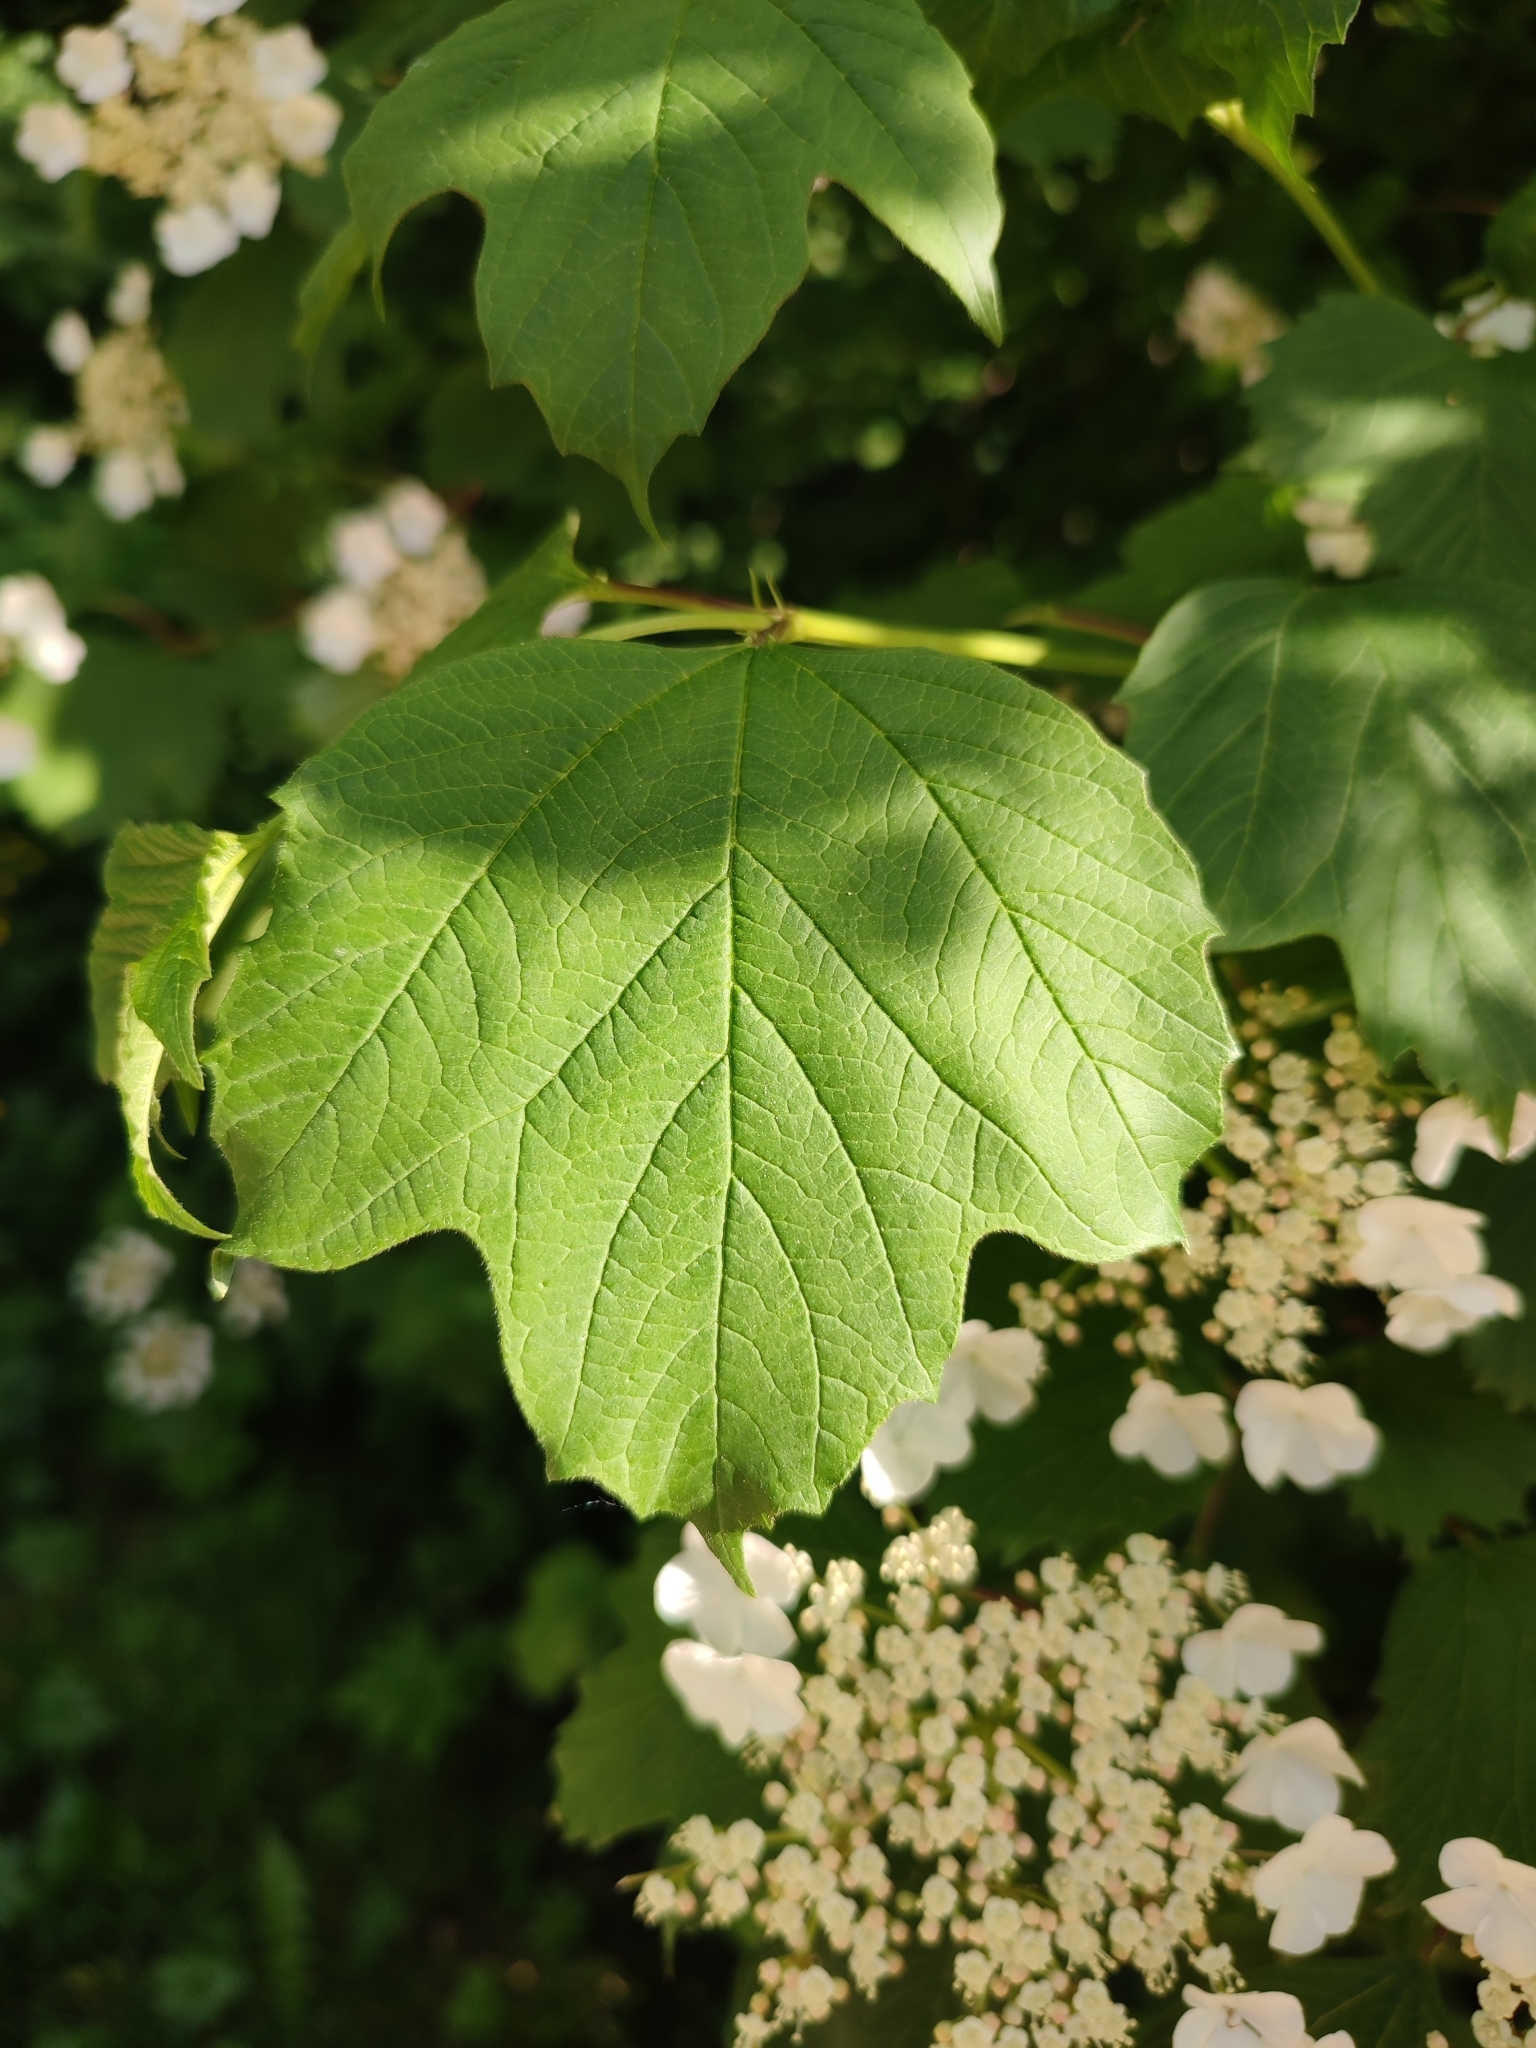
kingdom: Plantae
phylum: Tracheophyta
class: Magnoliopsida
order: Dipsacales
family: Viburnaceae
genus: Viburnum
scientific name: Viburnum opulus
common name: Guelder-rose
